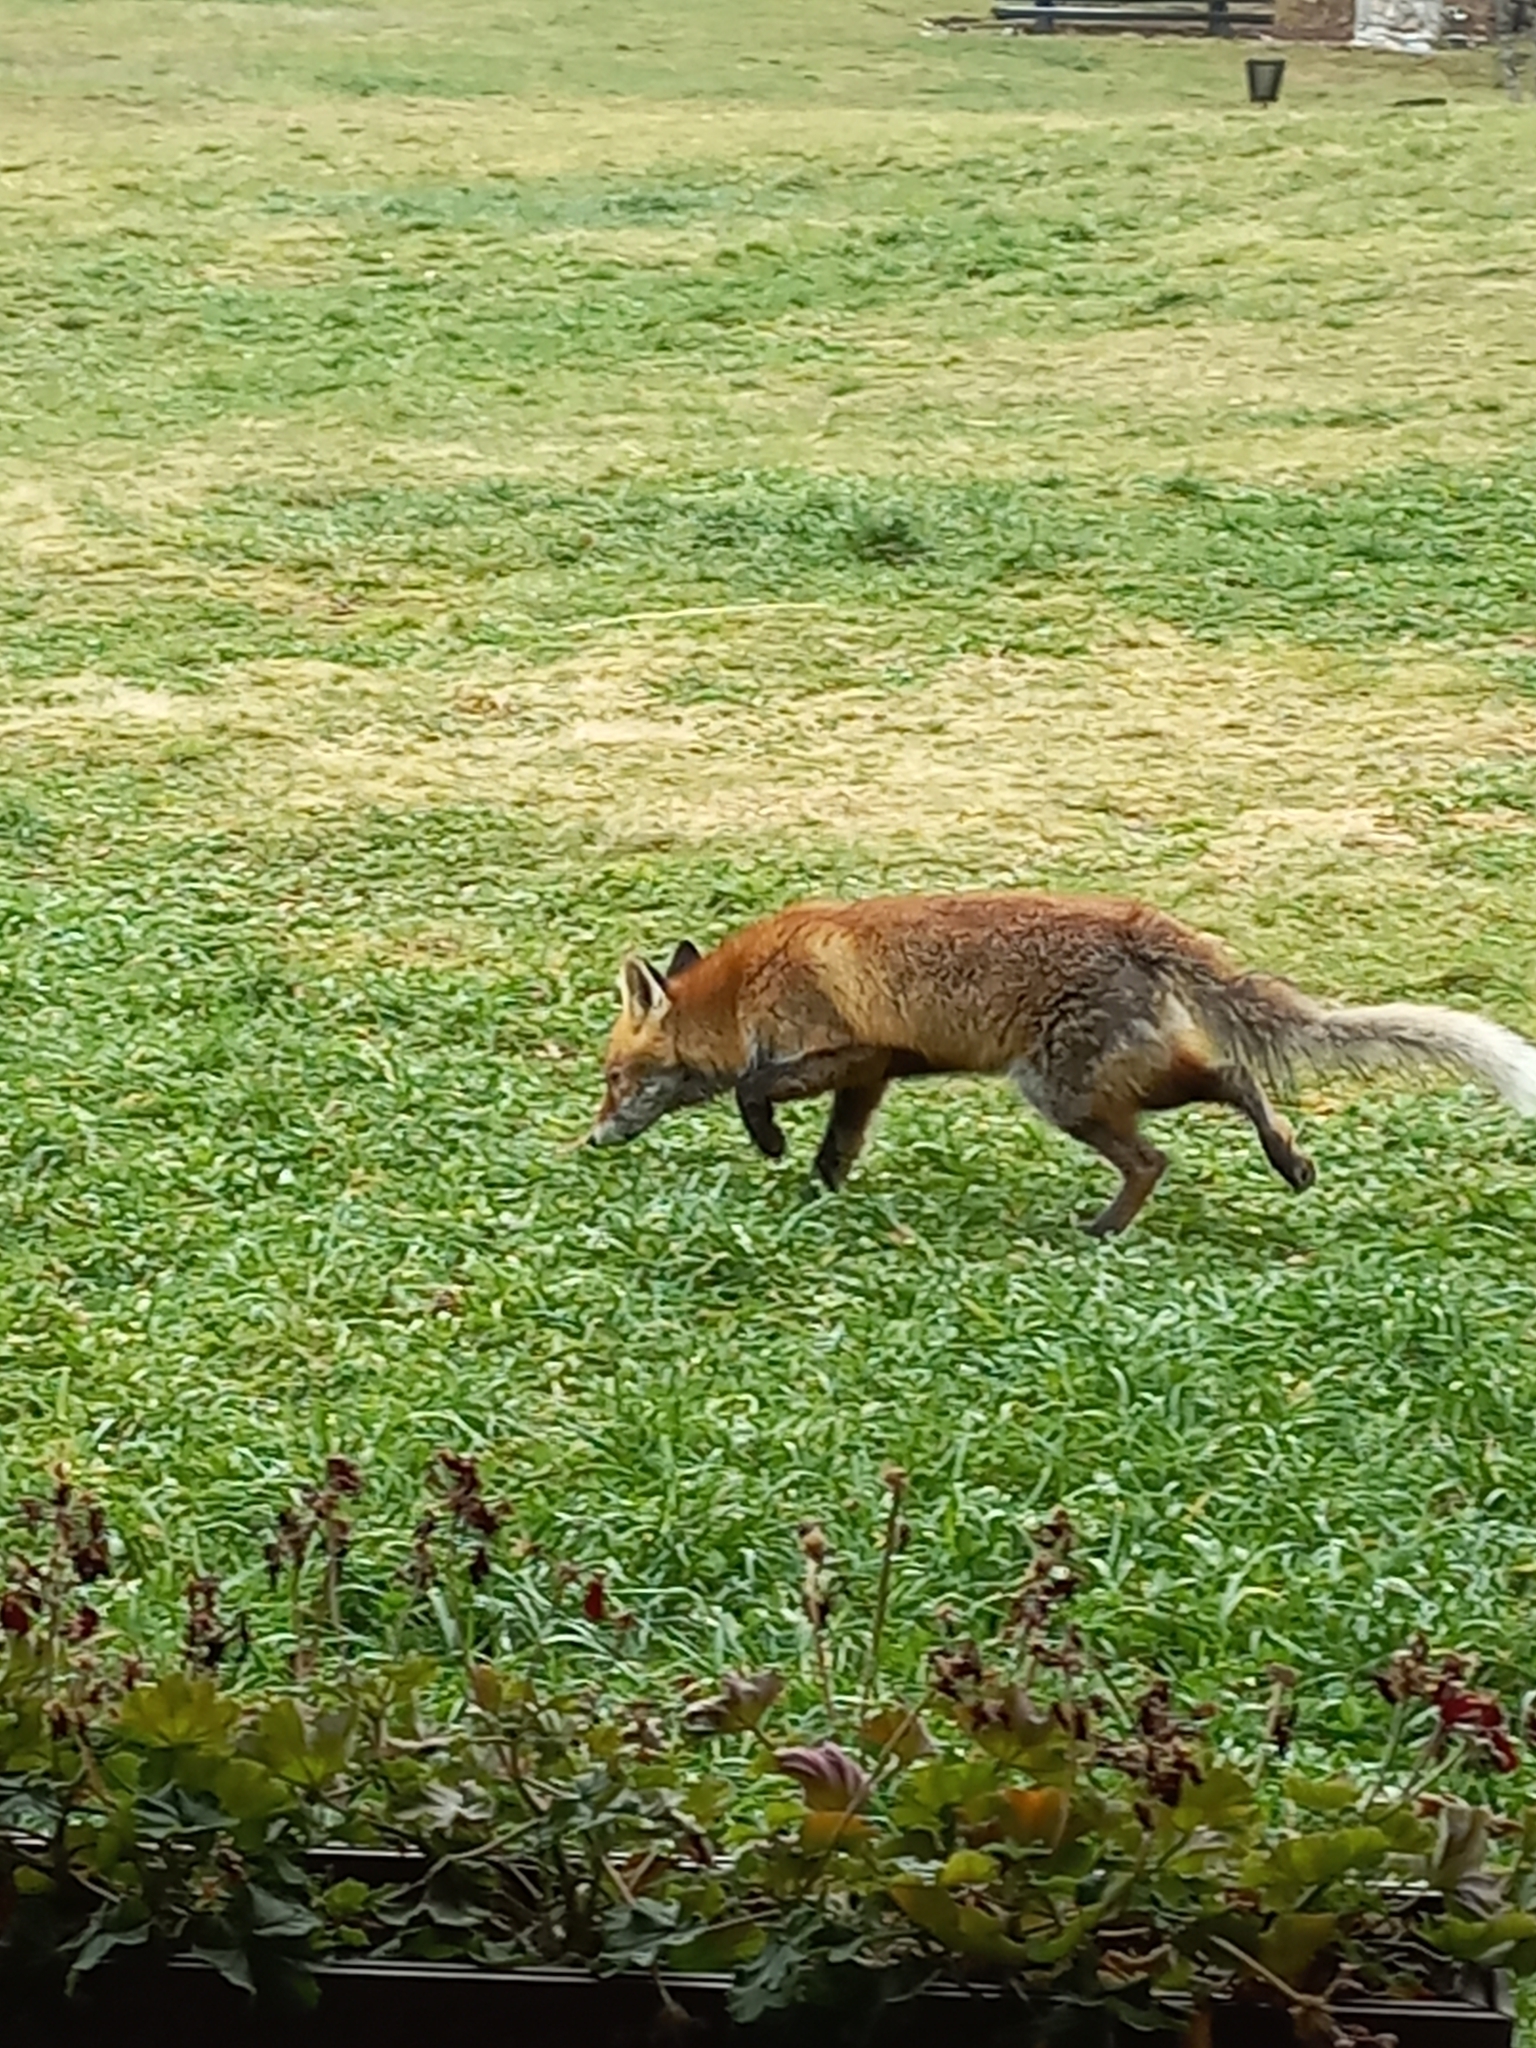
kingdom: Animalia
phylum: Chordata
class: Mammalia
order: Carnivora
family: Canidae
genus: Vulpes
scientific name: Vulpes vulpes
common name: Red fox
